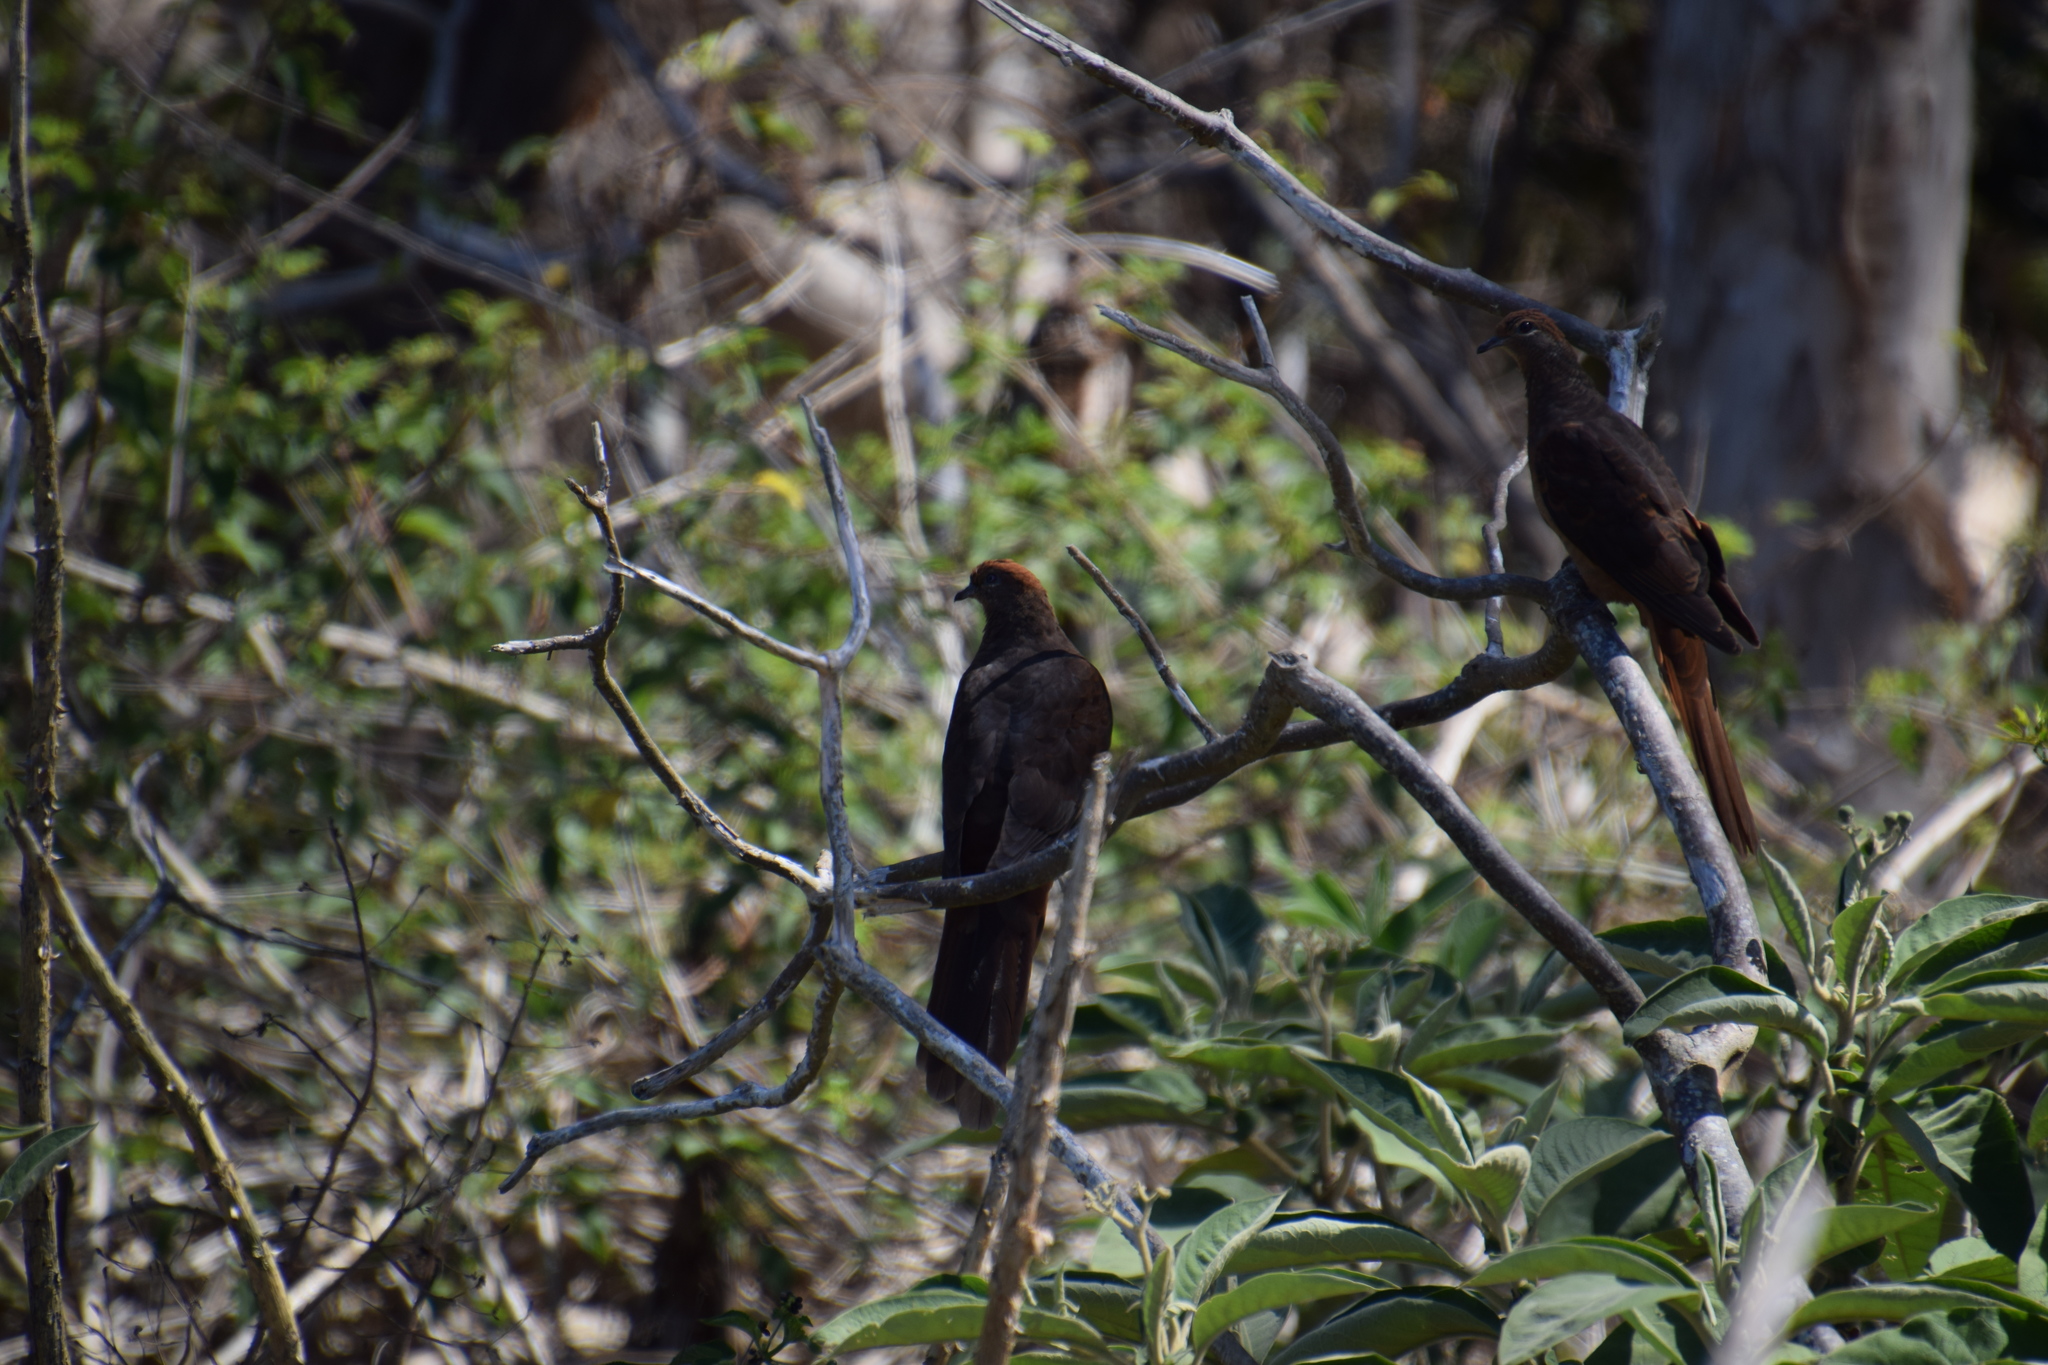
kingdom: Animalia
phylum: Chordata
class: Aves
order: Columbiformes
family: Columbidae
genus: Macropygia
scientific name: Macropygia phasianella
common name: Brown cuckoo-dove
